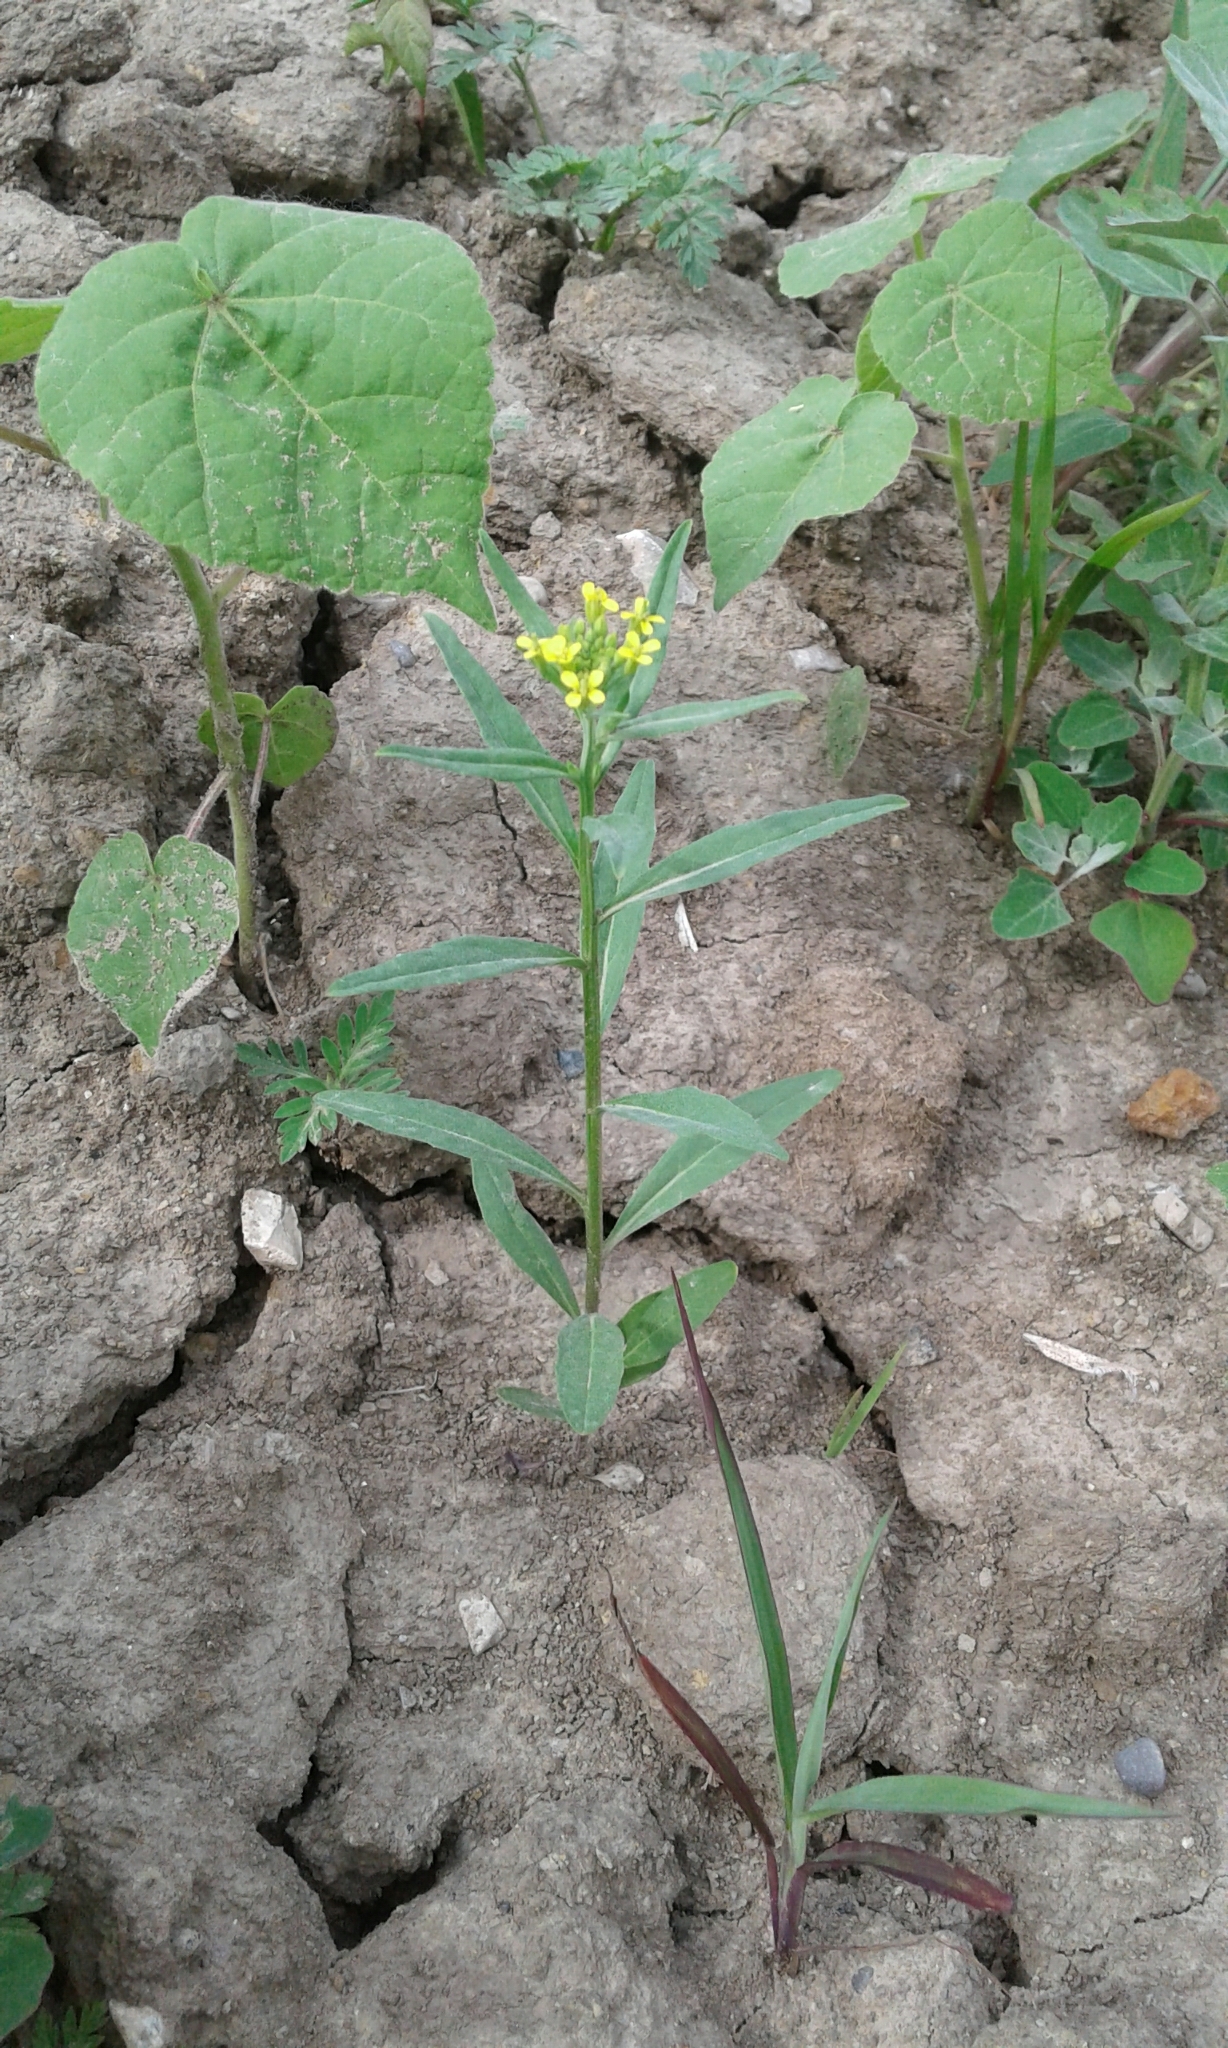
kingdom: Plantae
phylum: Tracheophyta
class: Magnoliopsida
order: Brassicales
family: Brassicaceae
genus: Erysimum
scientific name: Erysimum cheiranthoides
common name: Treacle mustard
